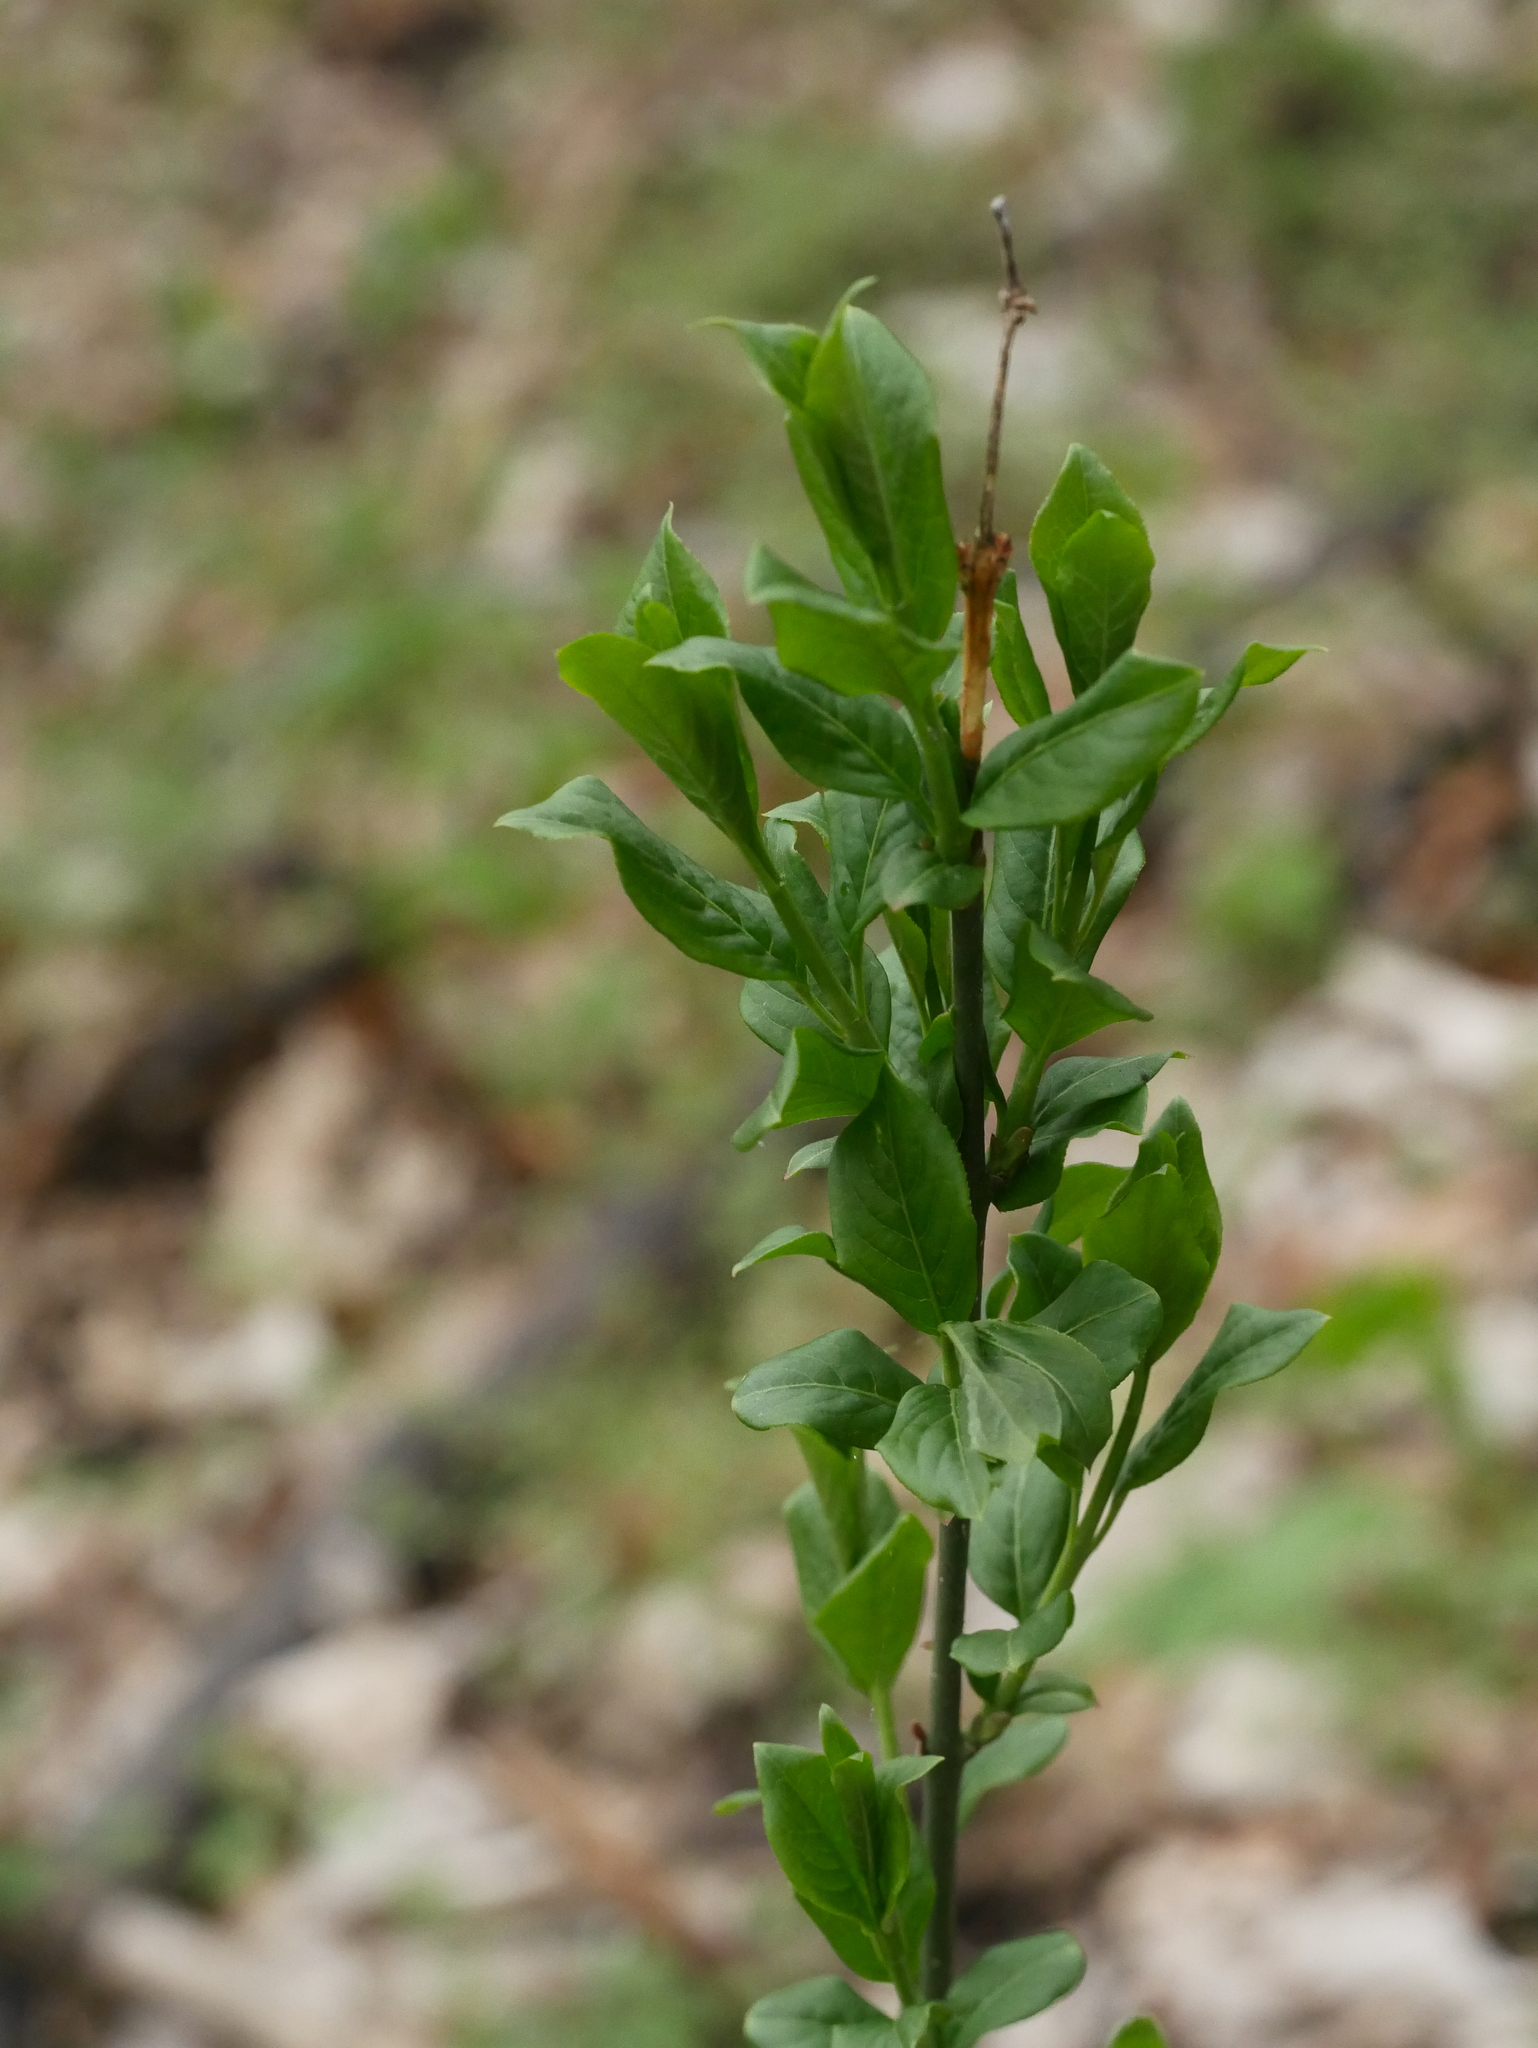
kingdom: Plantae
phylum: Tracheophyta
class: Magnoliopsida
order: Celastrales
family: Celastraceae
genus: Euonymus
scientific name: Euonymus europaeus
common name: Spindle
